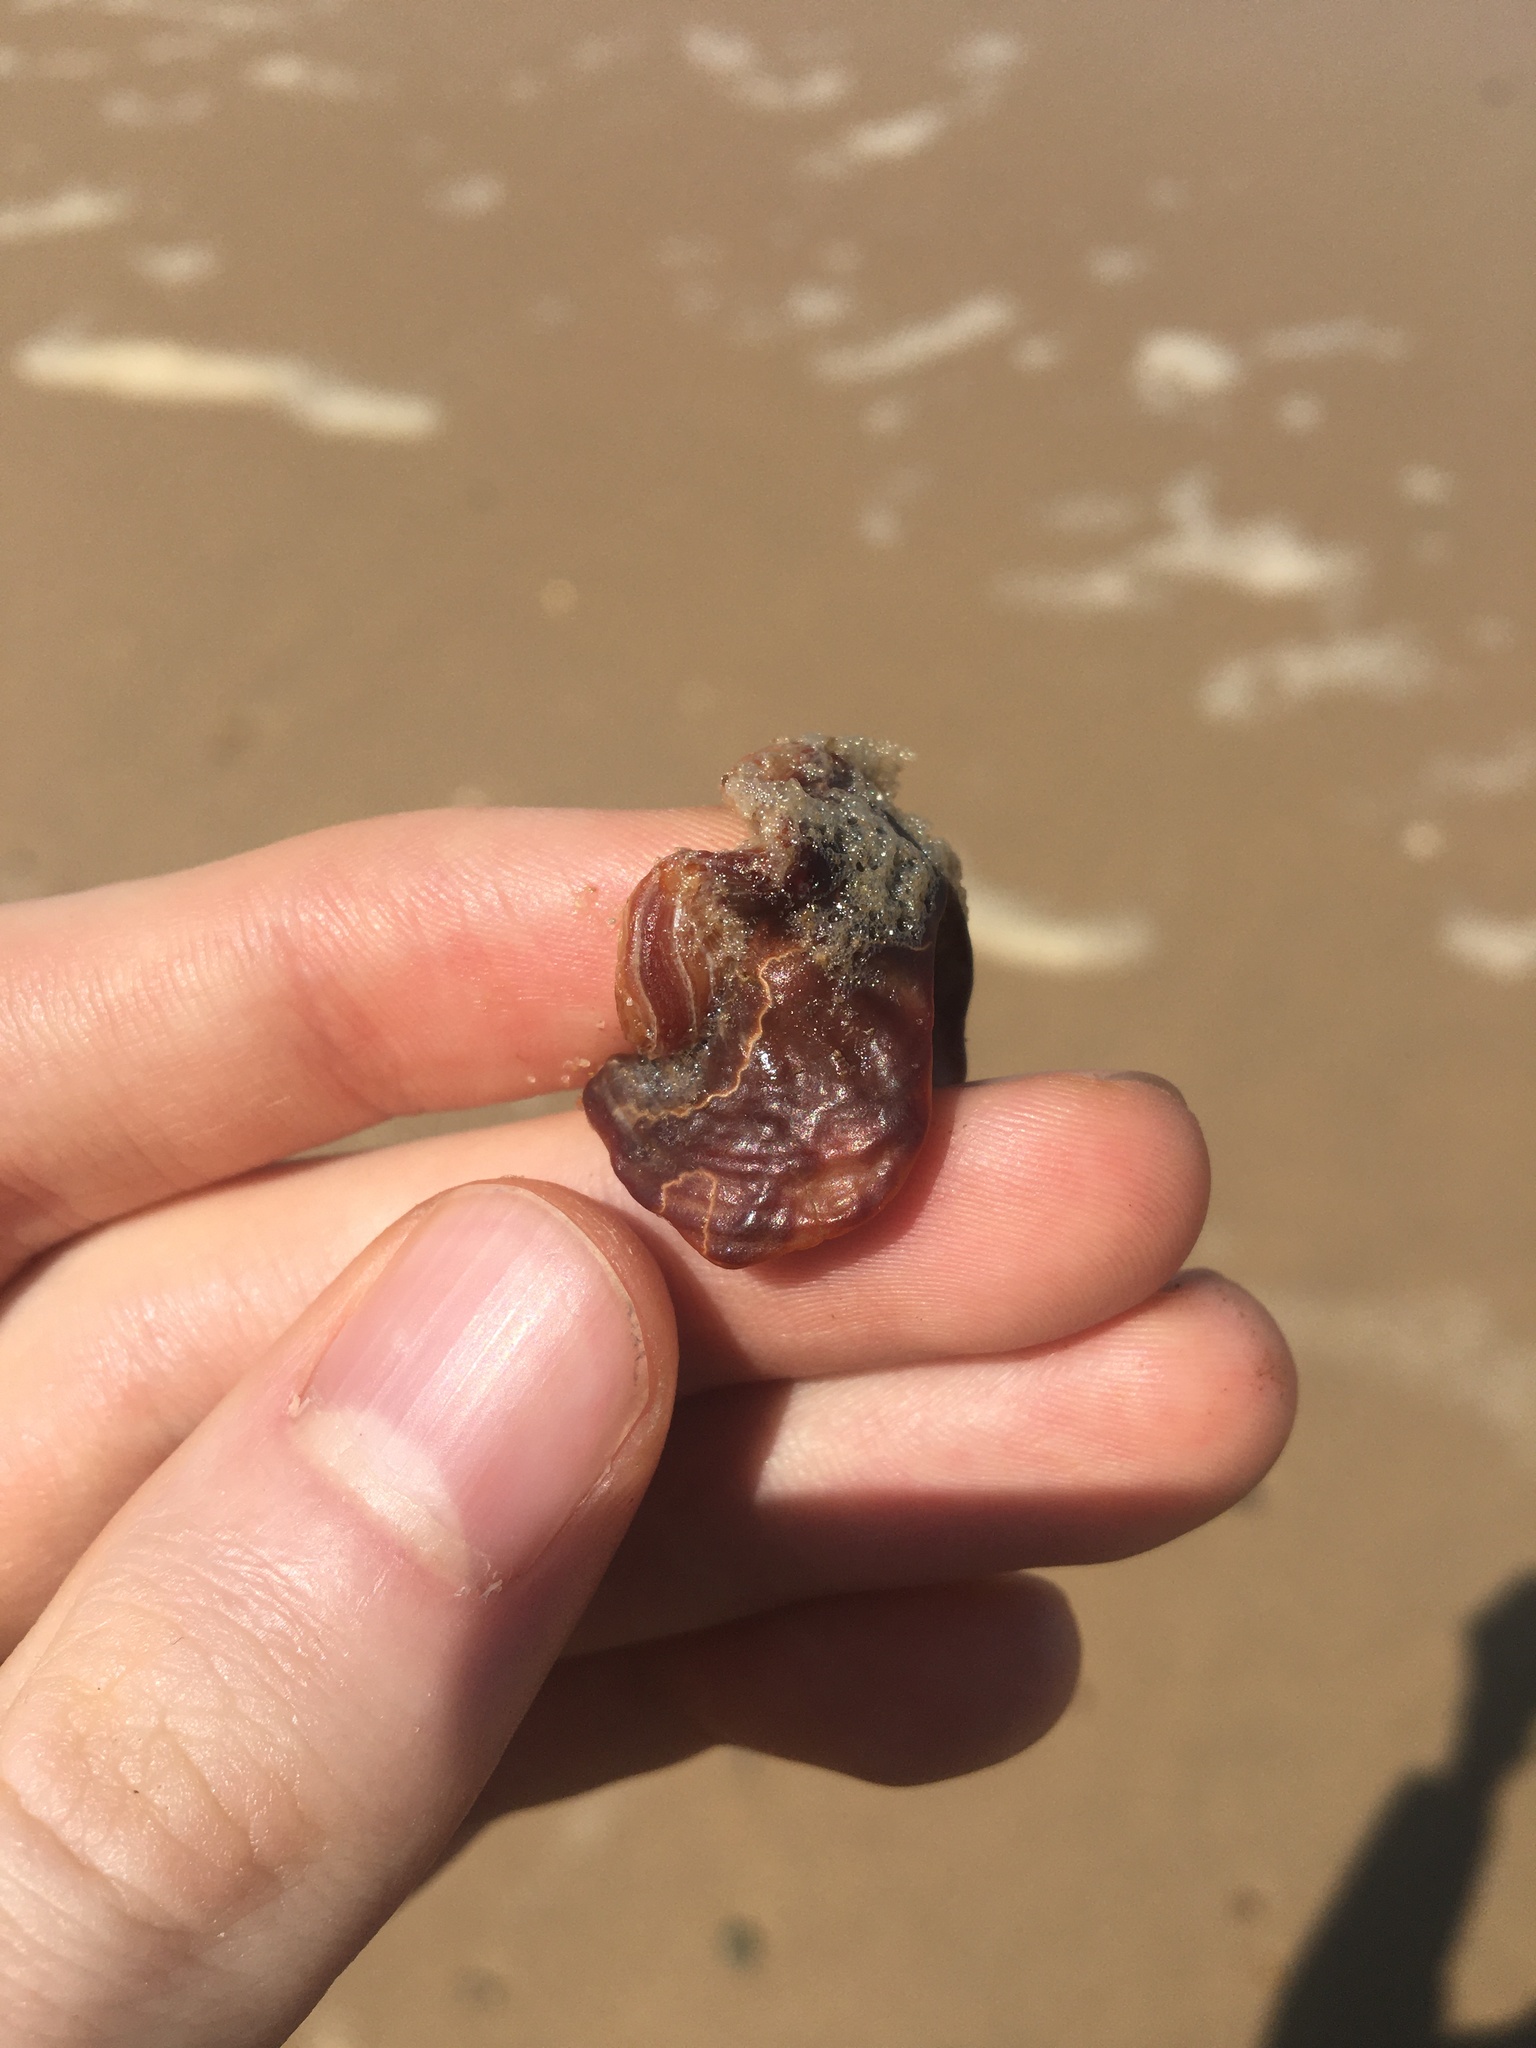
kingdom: Animalia
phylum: Mollusca
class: Gastropoda
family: Batillariidae
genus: Pyrazus
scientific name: Pyrazus ebeninus
